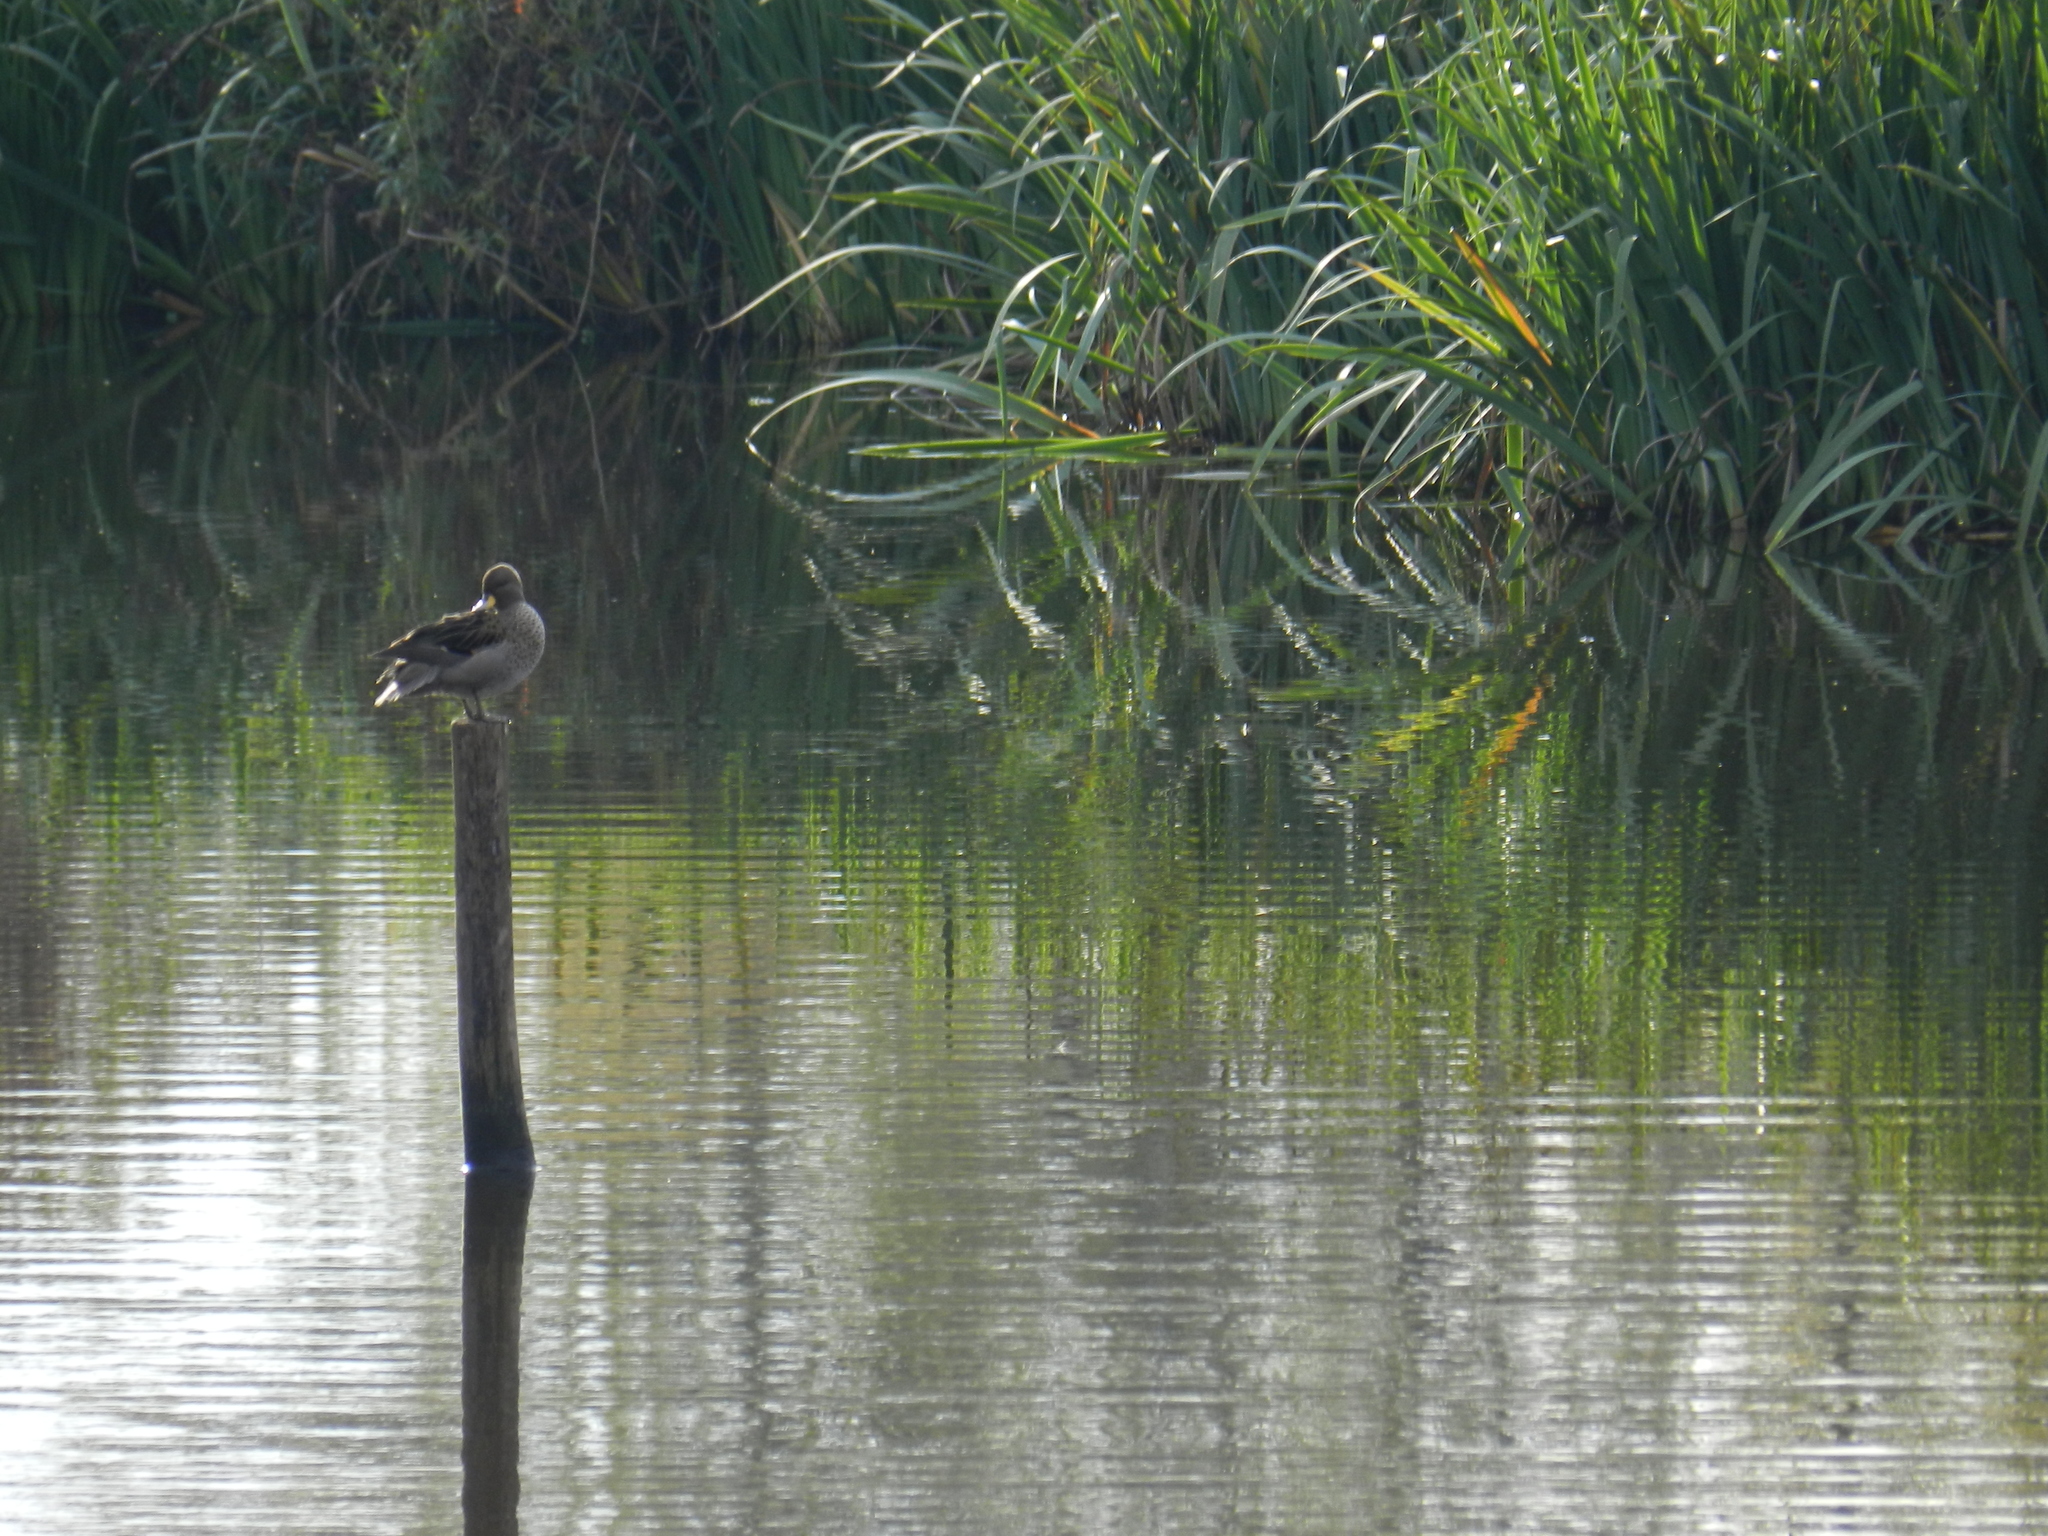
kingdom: Animalia
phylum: Chordata
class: Aves
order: Anseriformes
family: Anatidae
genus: Anas
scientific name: Anas flavirostris
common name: Yellow-billed teal
